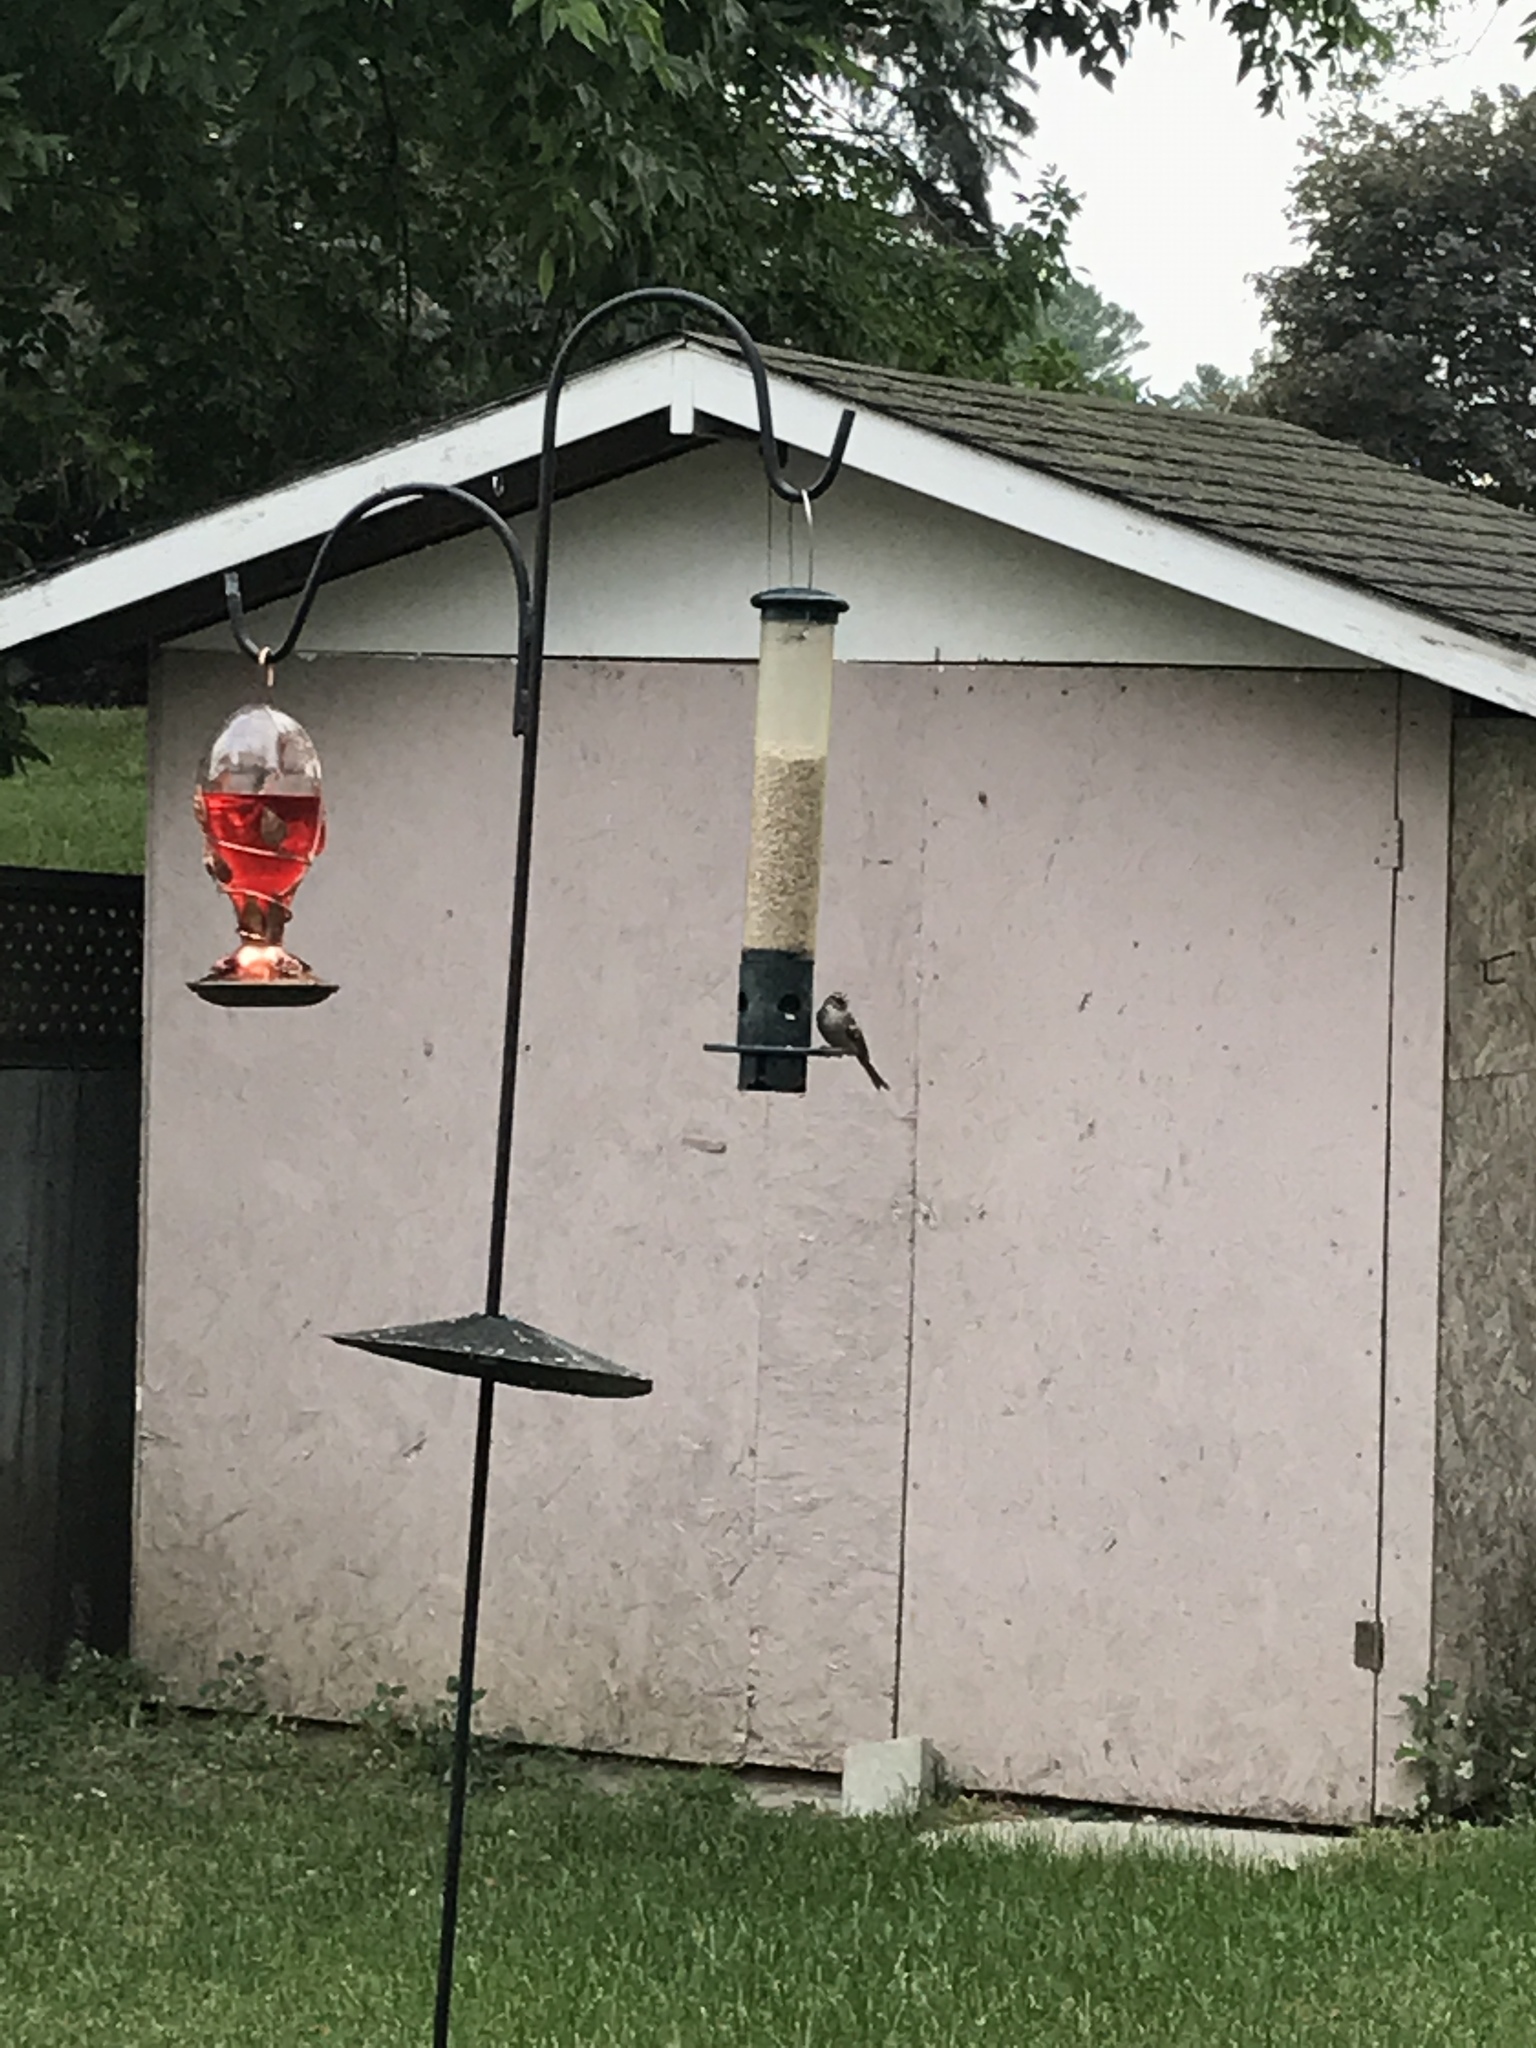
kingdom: Animalia
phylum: Chordata
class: Aves
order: Passeriformes
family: Passerellidae
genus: Spizella
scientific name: Spizella passerina
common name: Chipping sparrow
